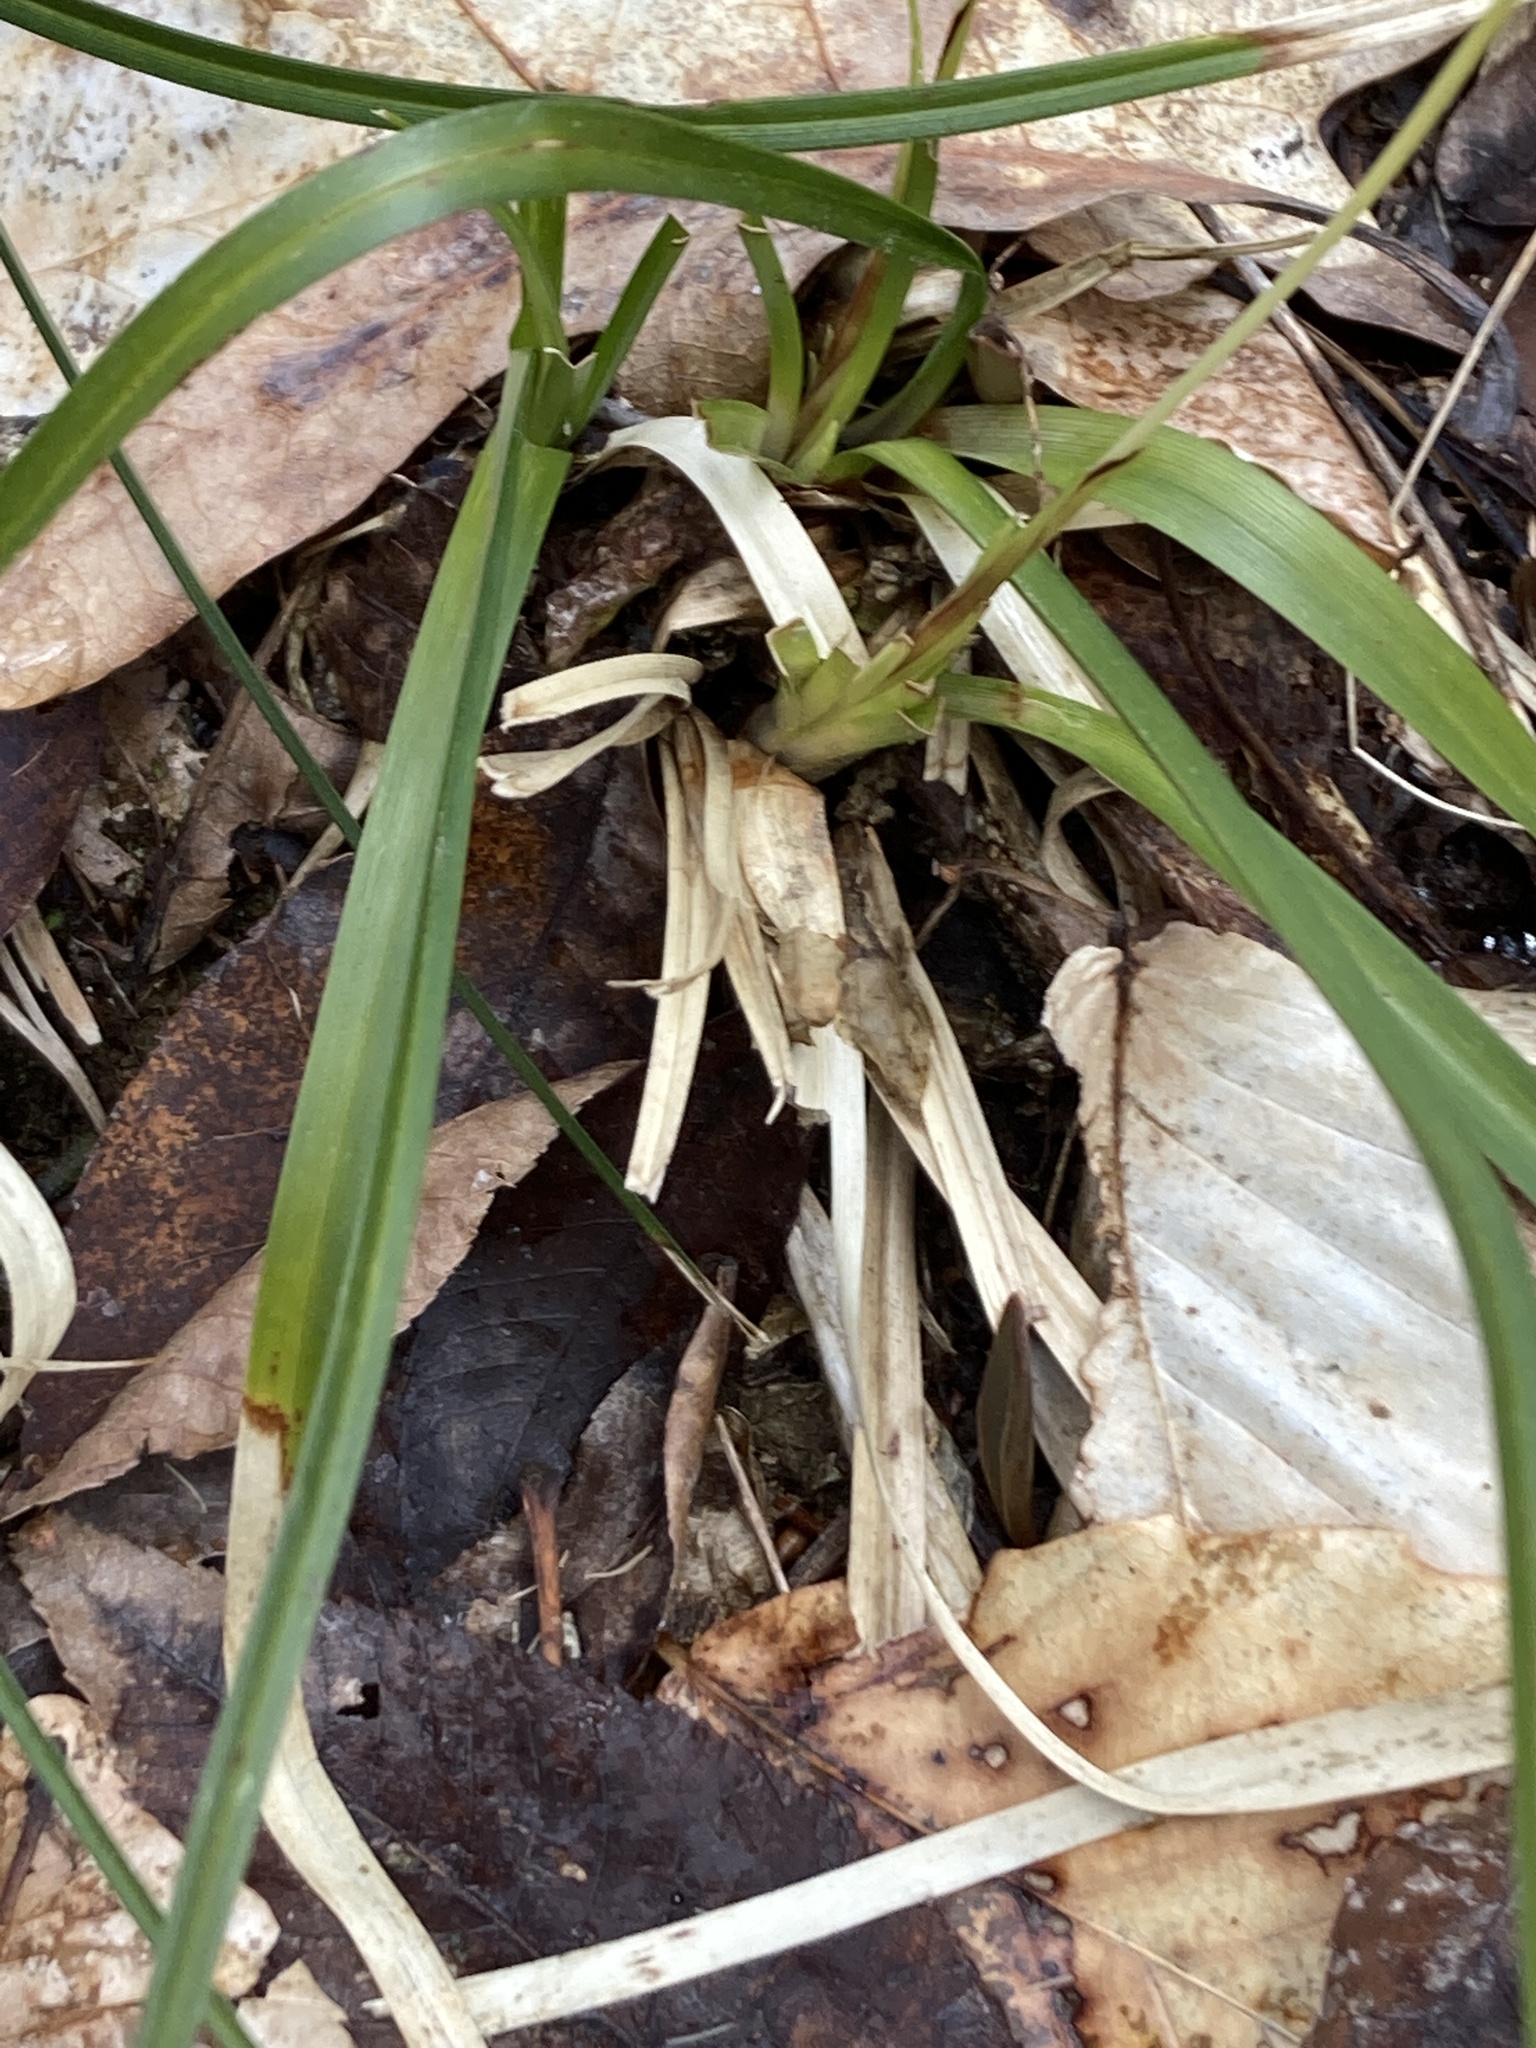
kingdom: Plantae
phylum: Tracheophyta
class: Liliopsida
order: Poales
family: Cyperaceae
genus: Carex
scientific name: Carex picta
